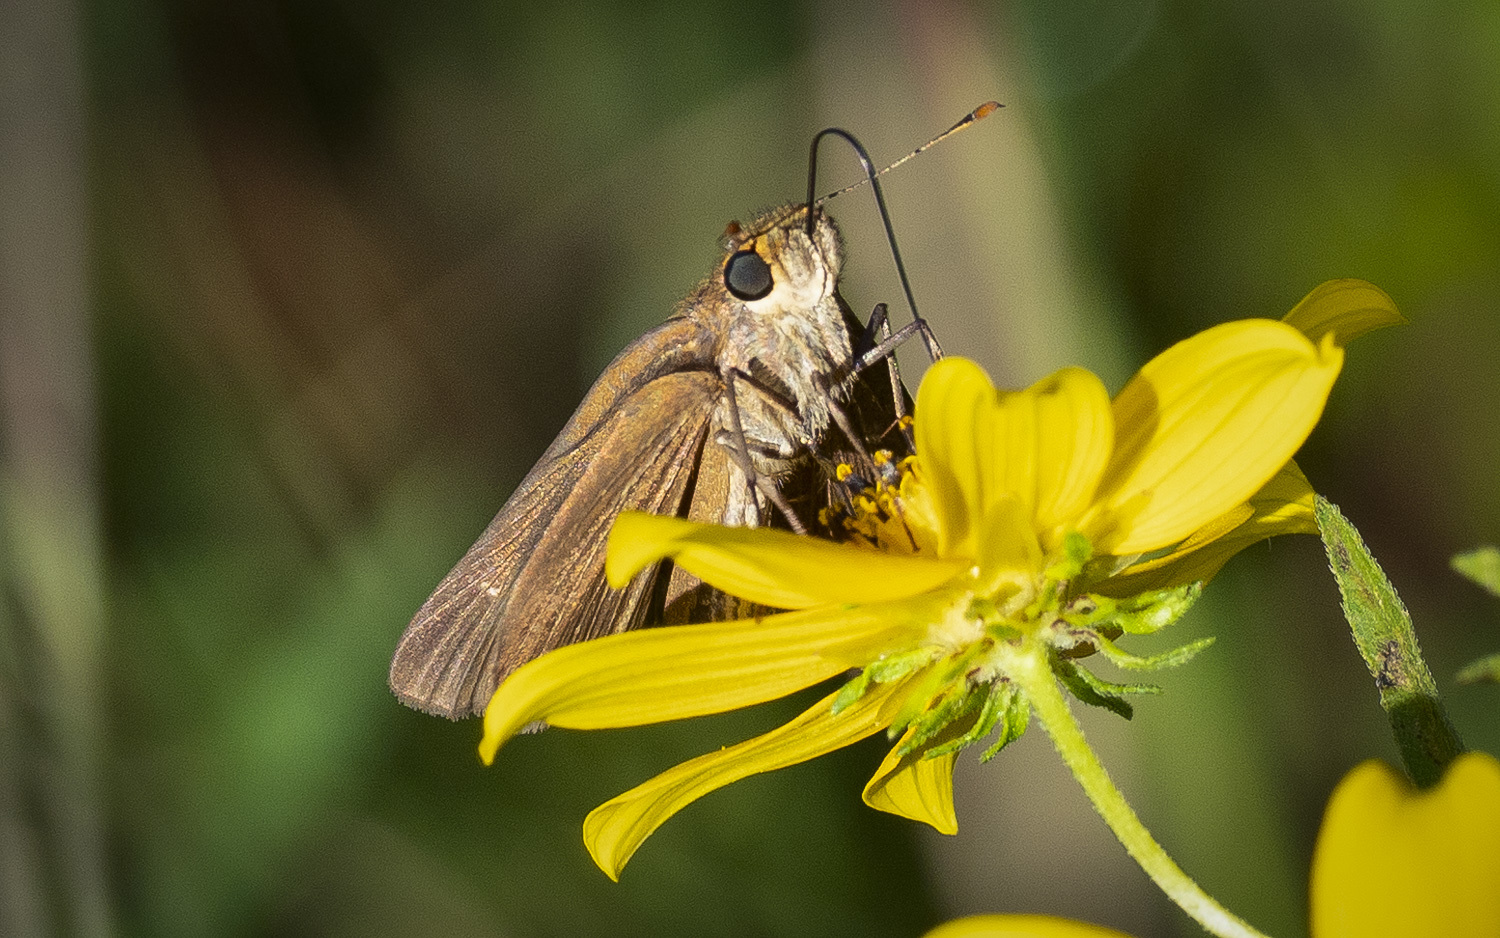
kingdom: Animalia
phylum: Arthropoda
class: Insecta
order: Lepidoptera
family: Lycaenidae
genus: Calycopis
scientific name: Calycopis cecrops
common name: Red-banded hairstreak
